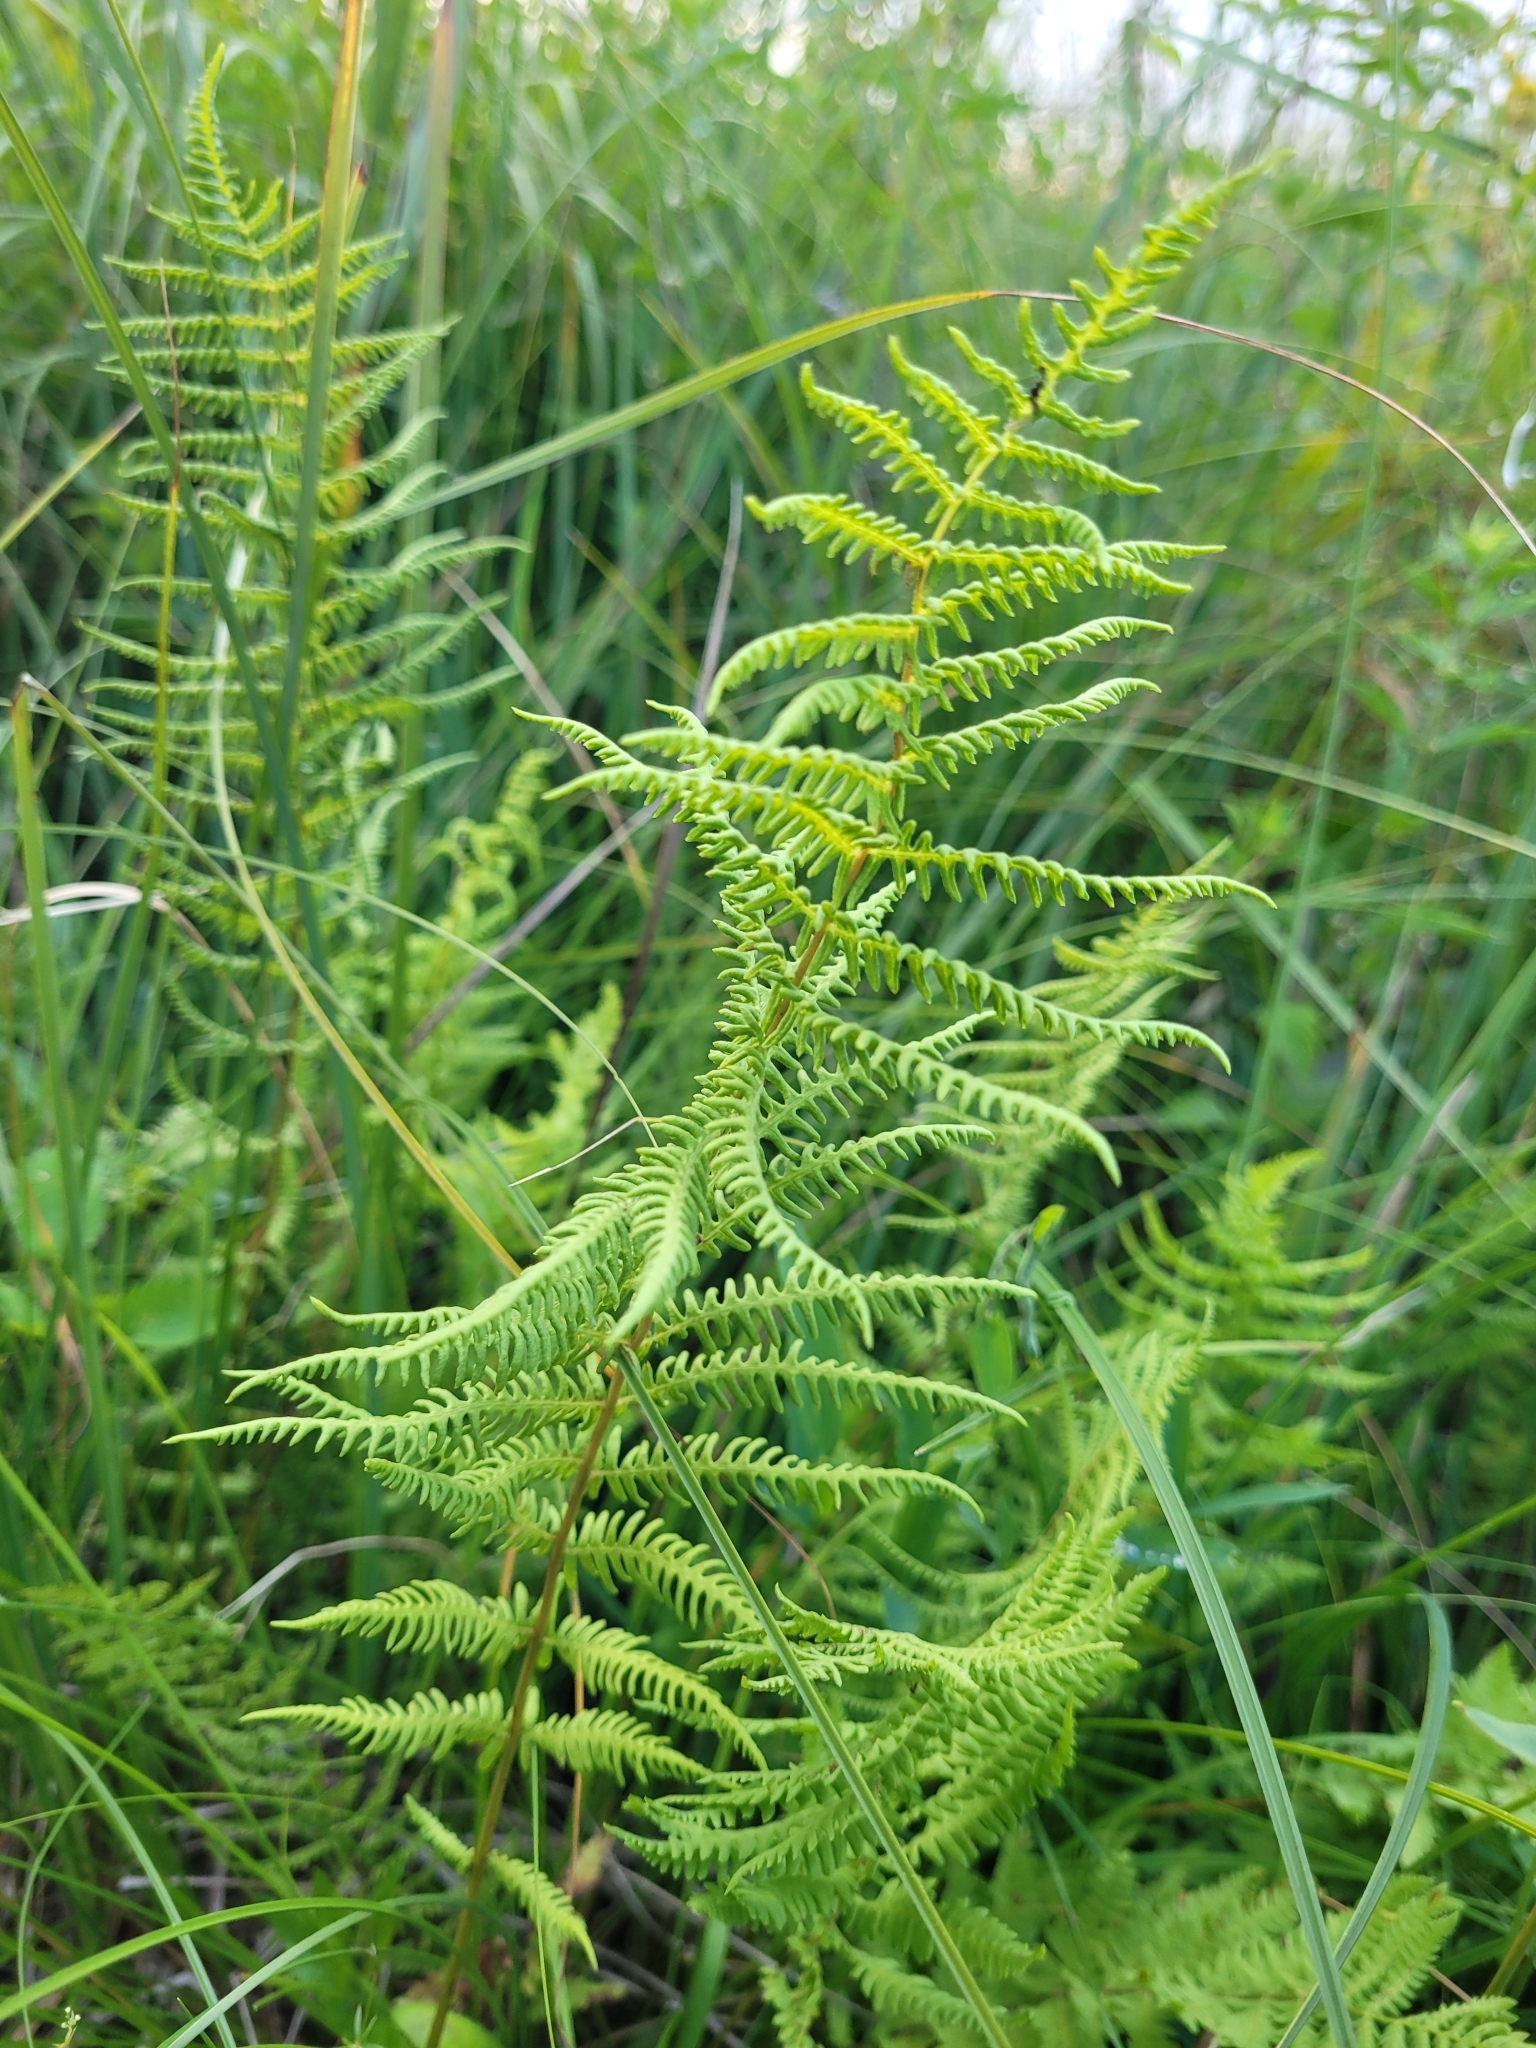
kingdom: Plantae
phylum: Tracheophyta
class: Polypodiopsida
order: Polypodiales
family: Thelypteridaceae
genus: Thelypteris
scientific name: Thelypteris palustris
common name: Marsh fern
